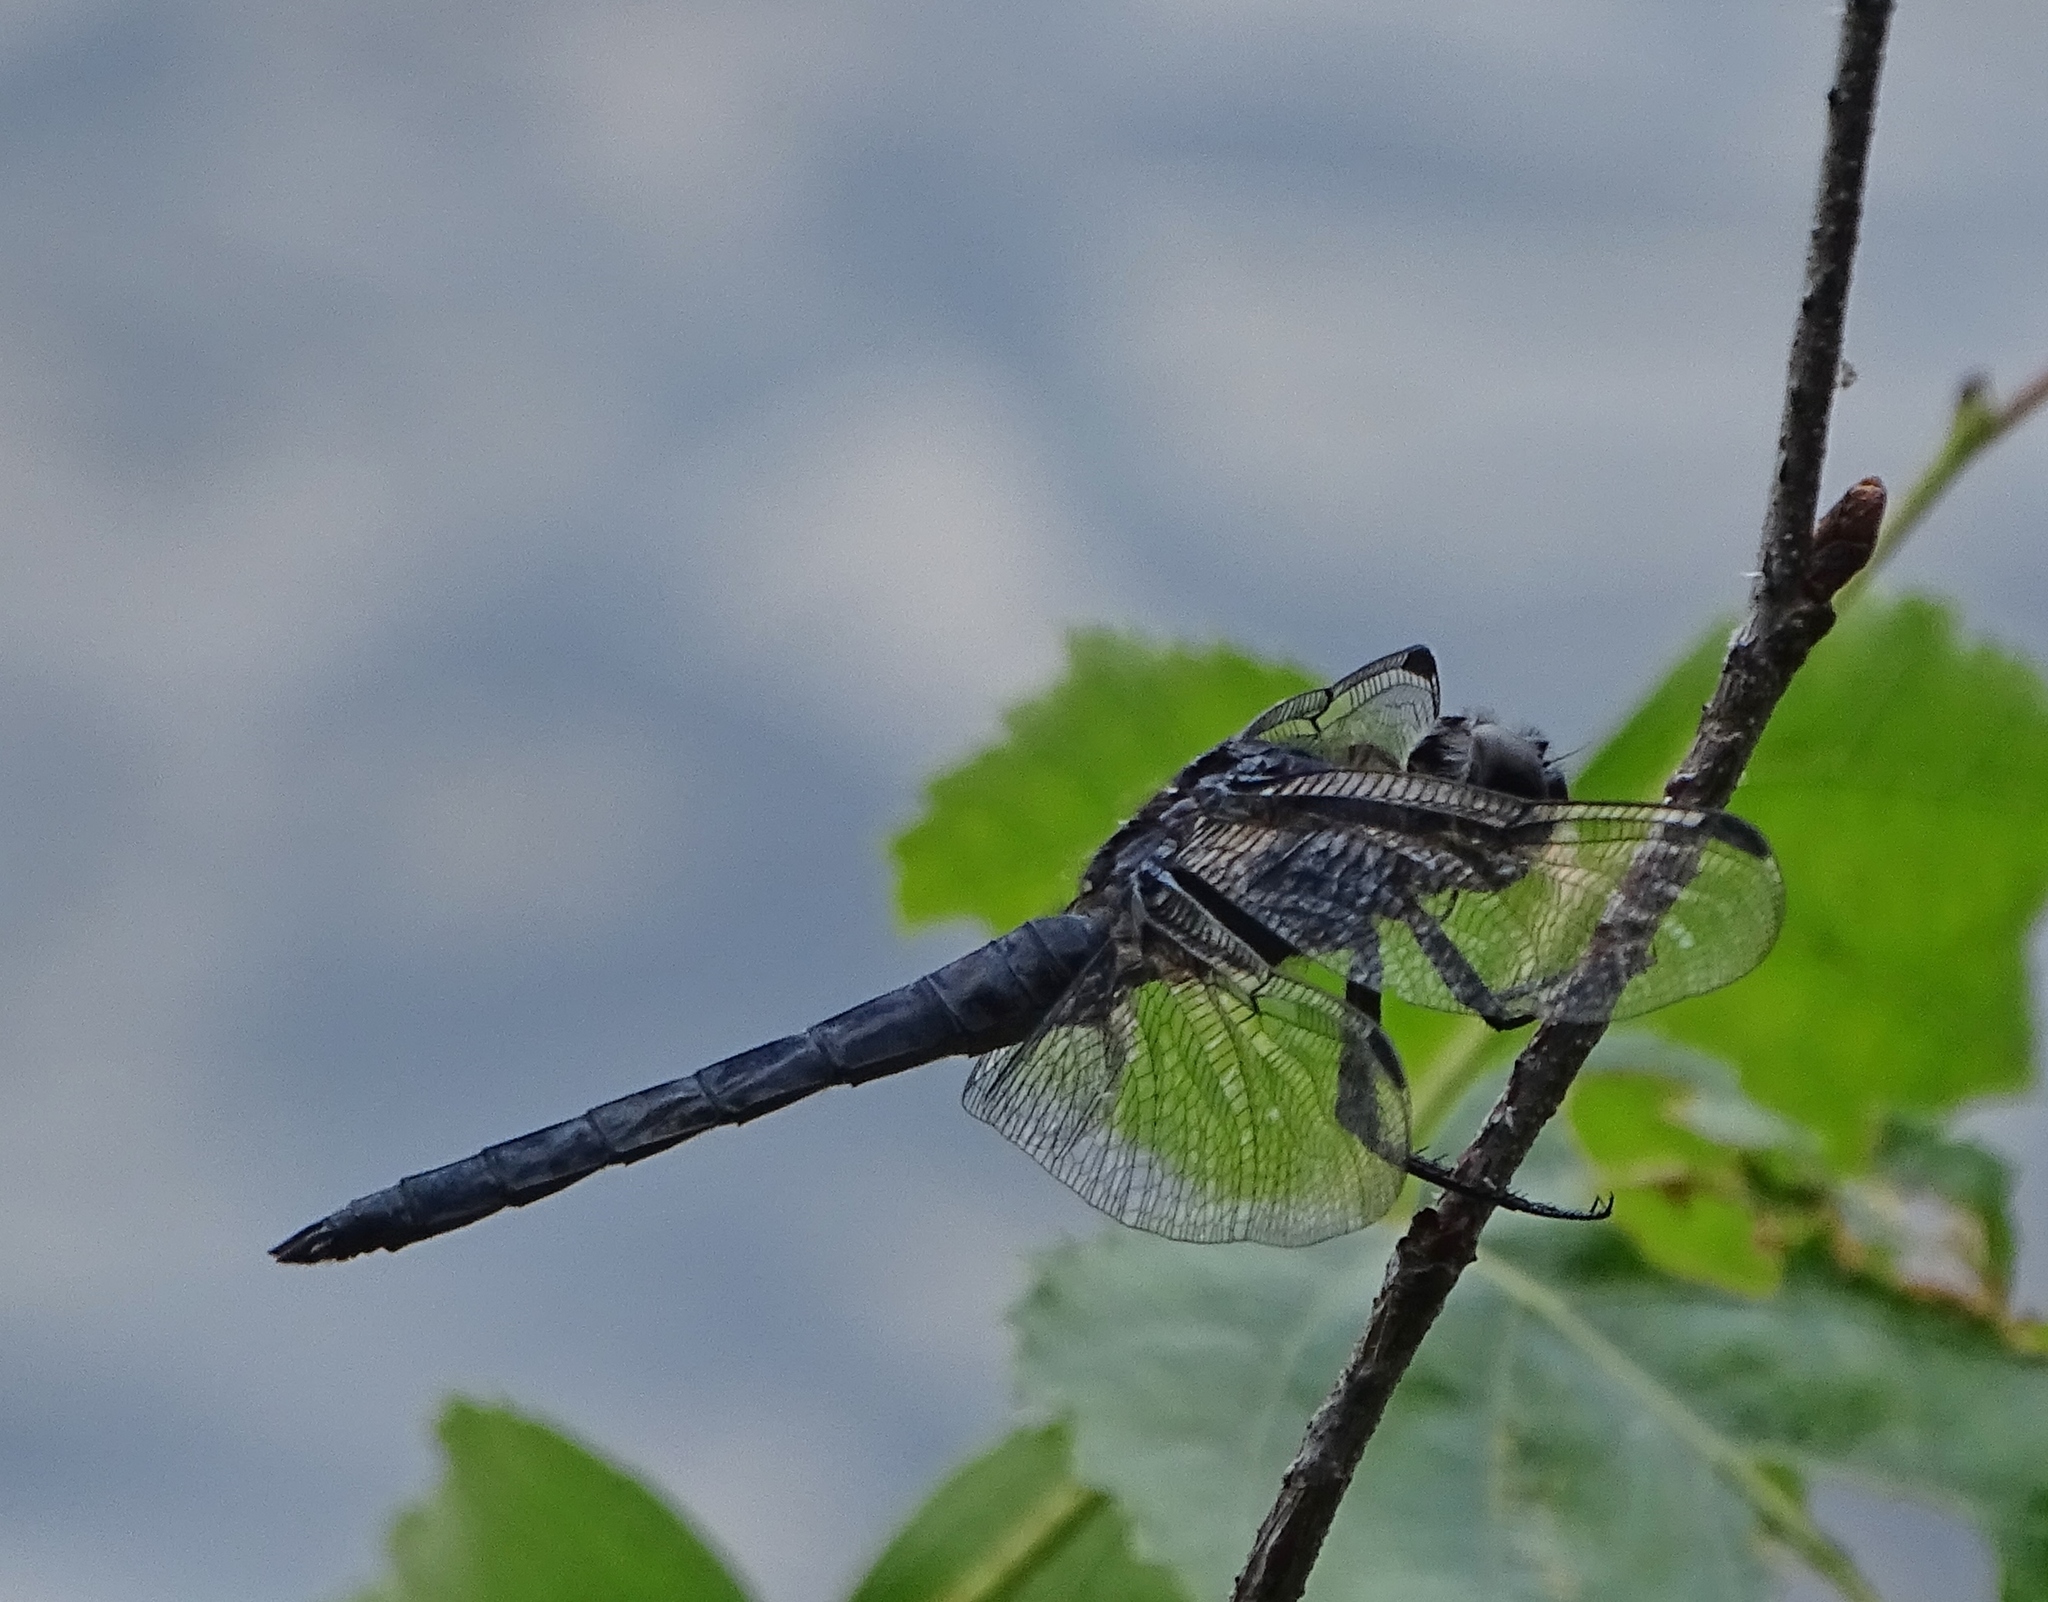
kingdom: Animalia
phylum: Arthropoda
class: Insecta
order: Odonata
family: Libellulidae
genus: Libellula
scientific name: Libellula incesta
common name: Slaty skimmer
